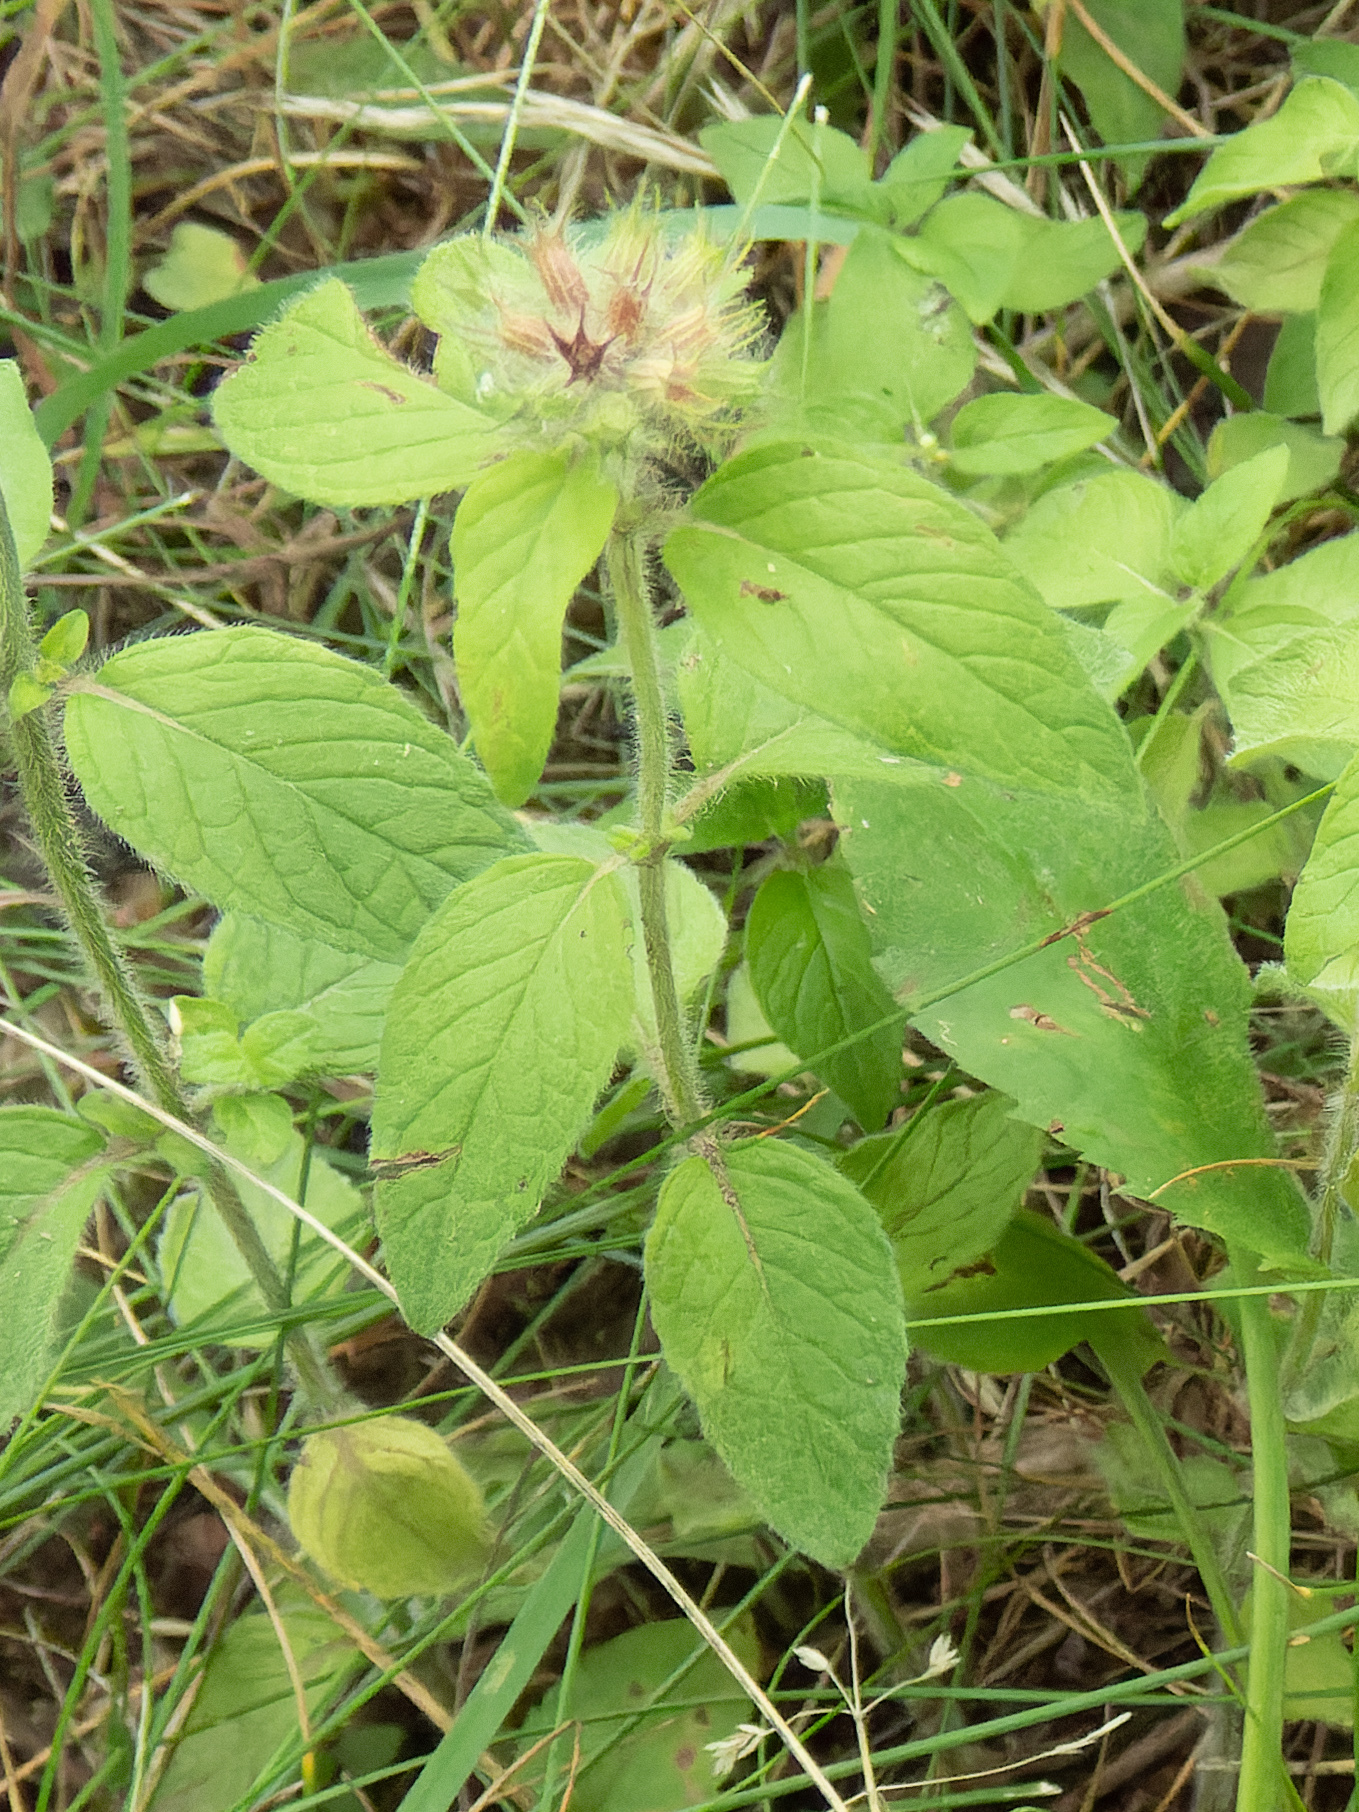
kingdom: Plantae
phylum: Tracheophyta
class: Magnoliopsida
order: Lamiales
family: Lamiaceae
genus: Clinopodium
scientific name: Clinopodium vulgare
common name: Wild basil
